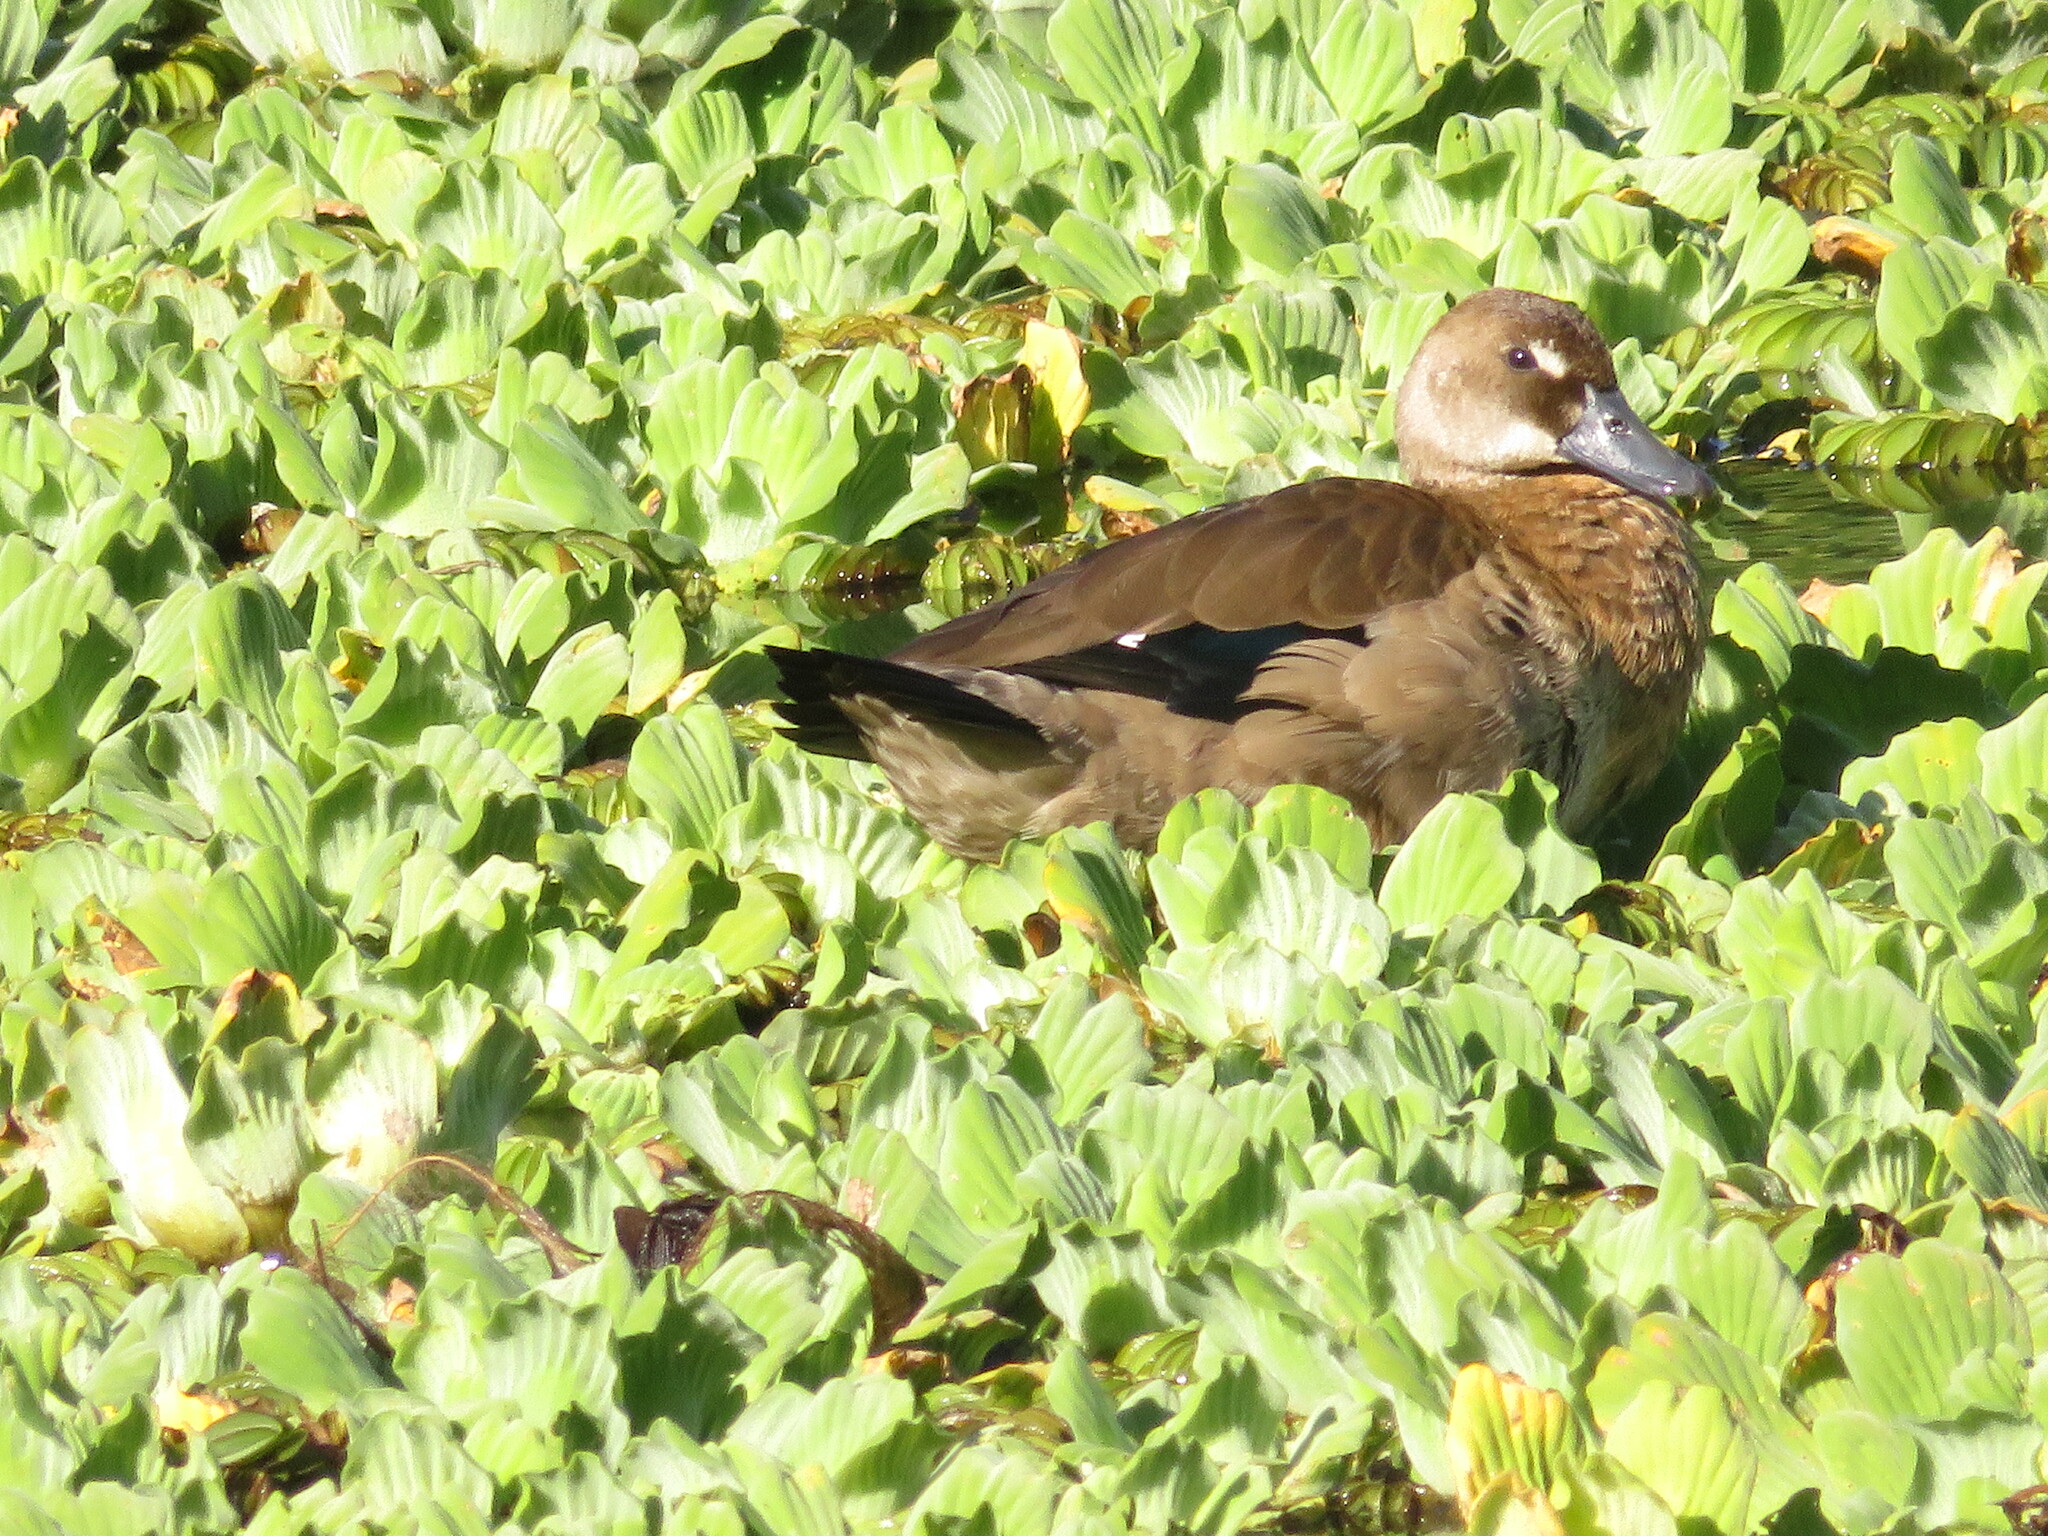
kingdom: Animalia
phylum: Chordata
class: Aves
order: Anseriformes
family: Anatidae
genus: Amazonetta
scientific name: Amazonetta brasiliensis
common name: Brazilian teal
